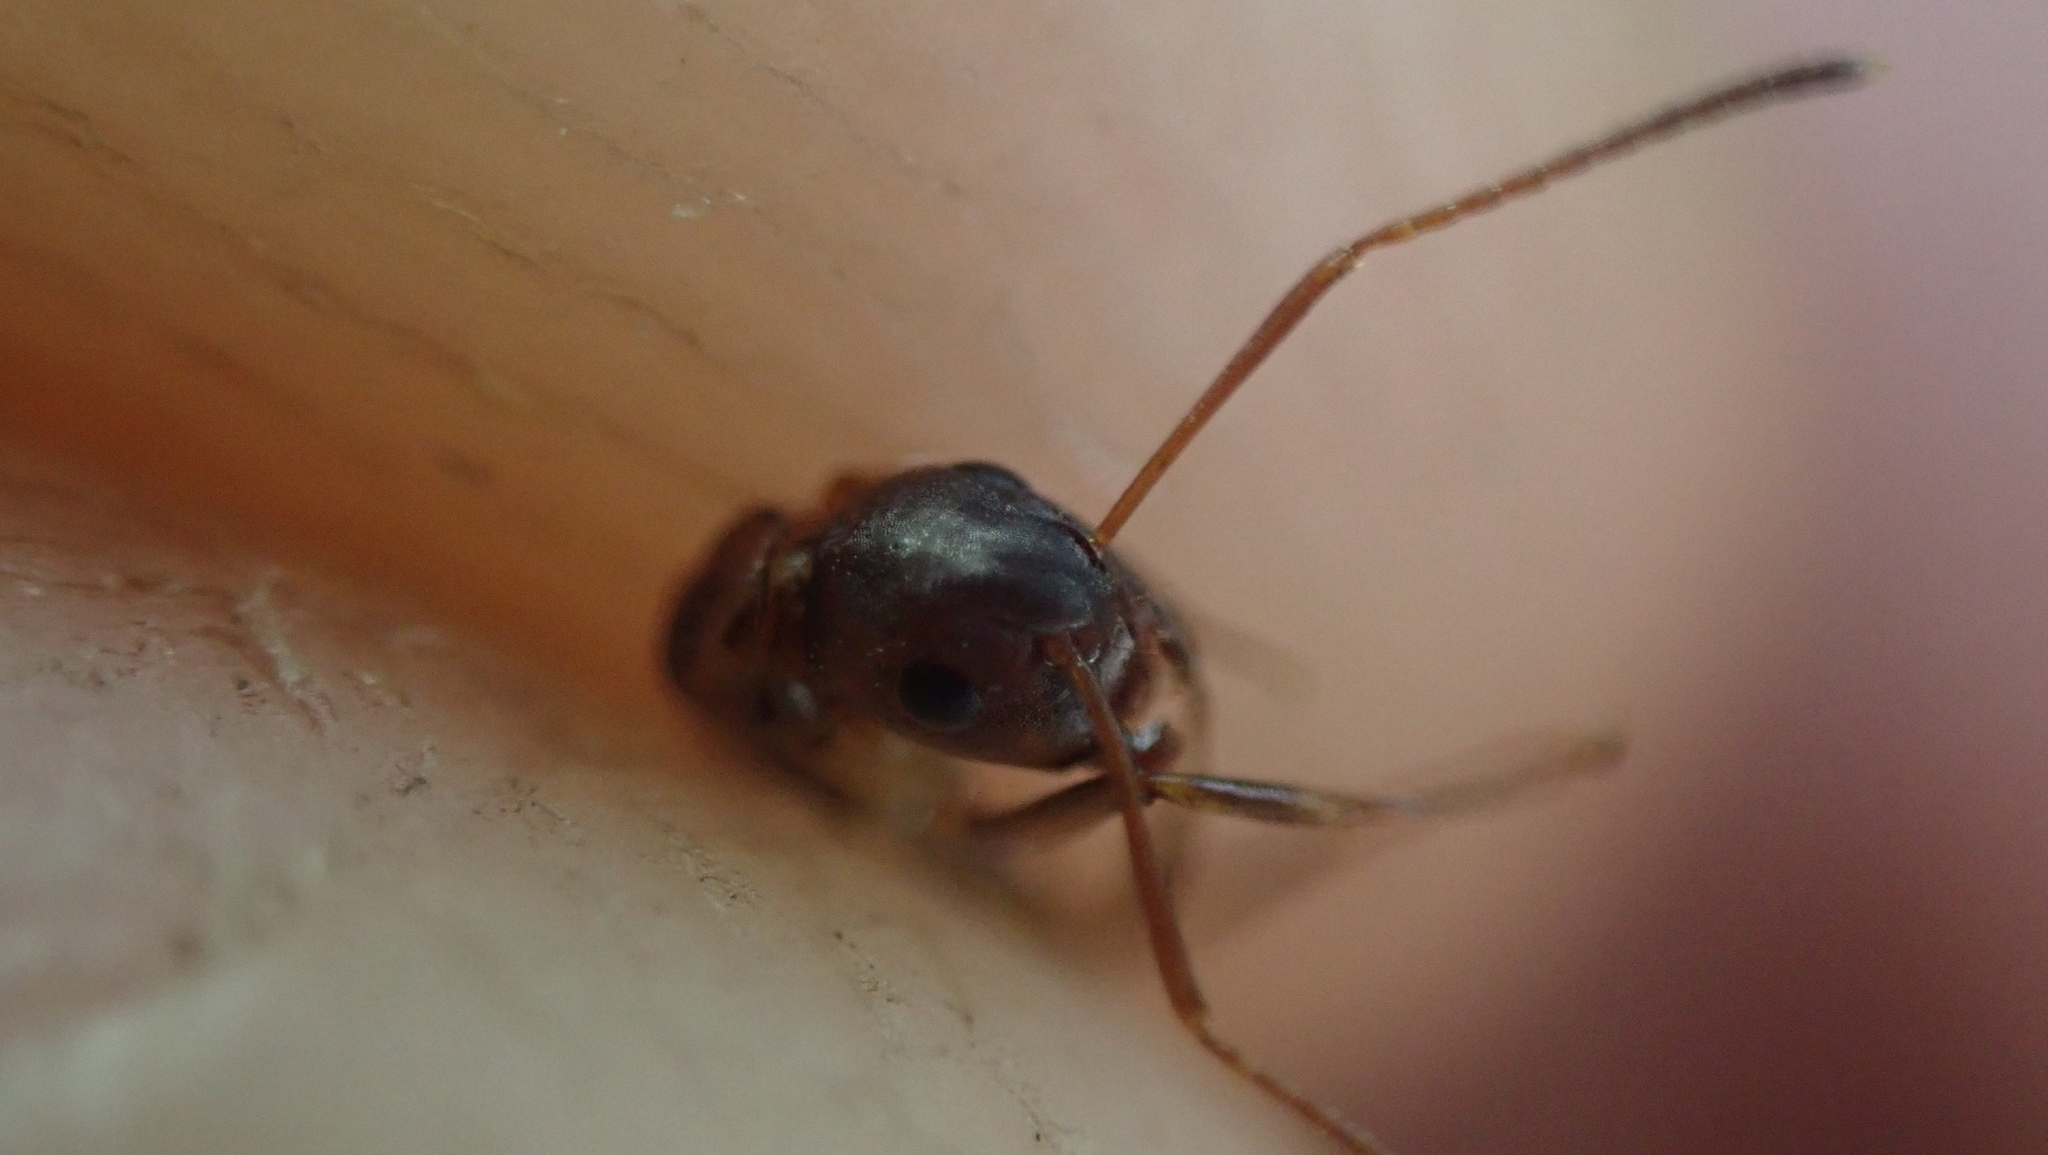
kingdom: Animalia
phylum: Arthropoda
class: Insecta
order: Hymenoptera
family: Formicidae
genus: Camponotus
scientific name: Camponotus subbarbatus
